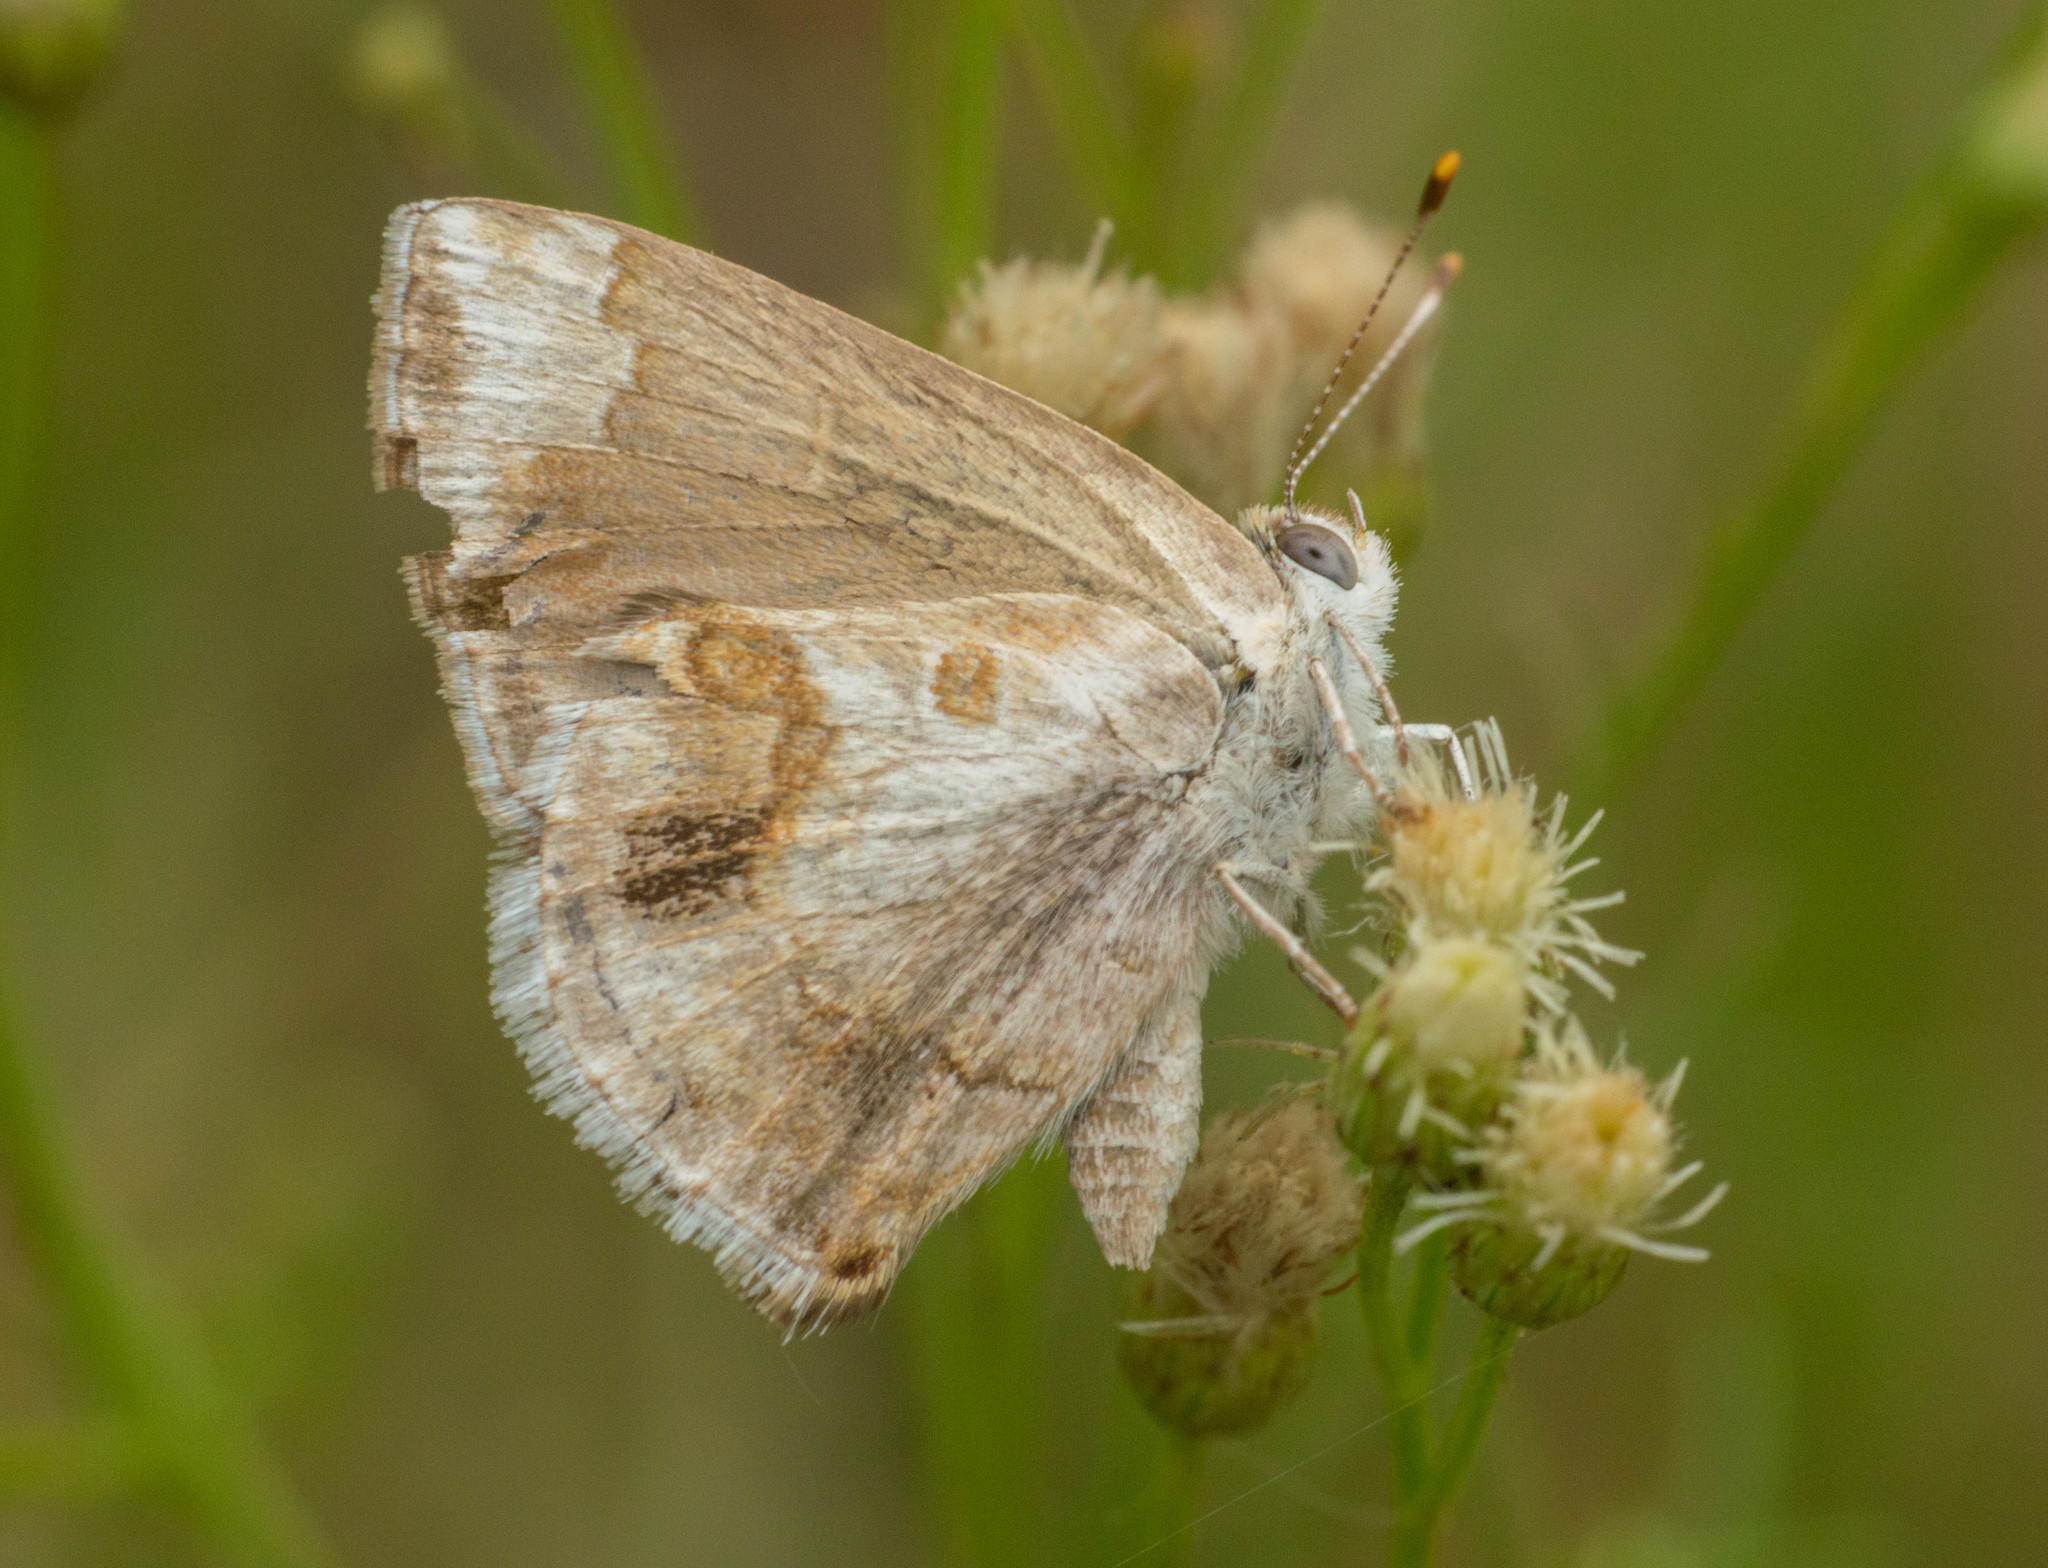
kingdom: Animalia
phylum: Arthropoda
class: Insecta
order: Lepidoptera
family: Lycaenidae
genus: Strymon
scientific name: Strymon bazochii
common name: Lantana scrub-hairstreak
